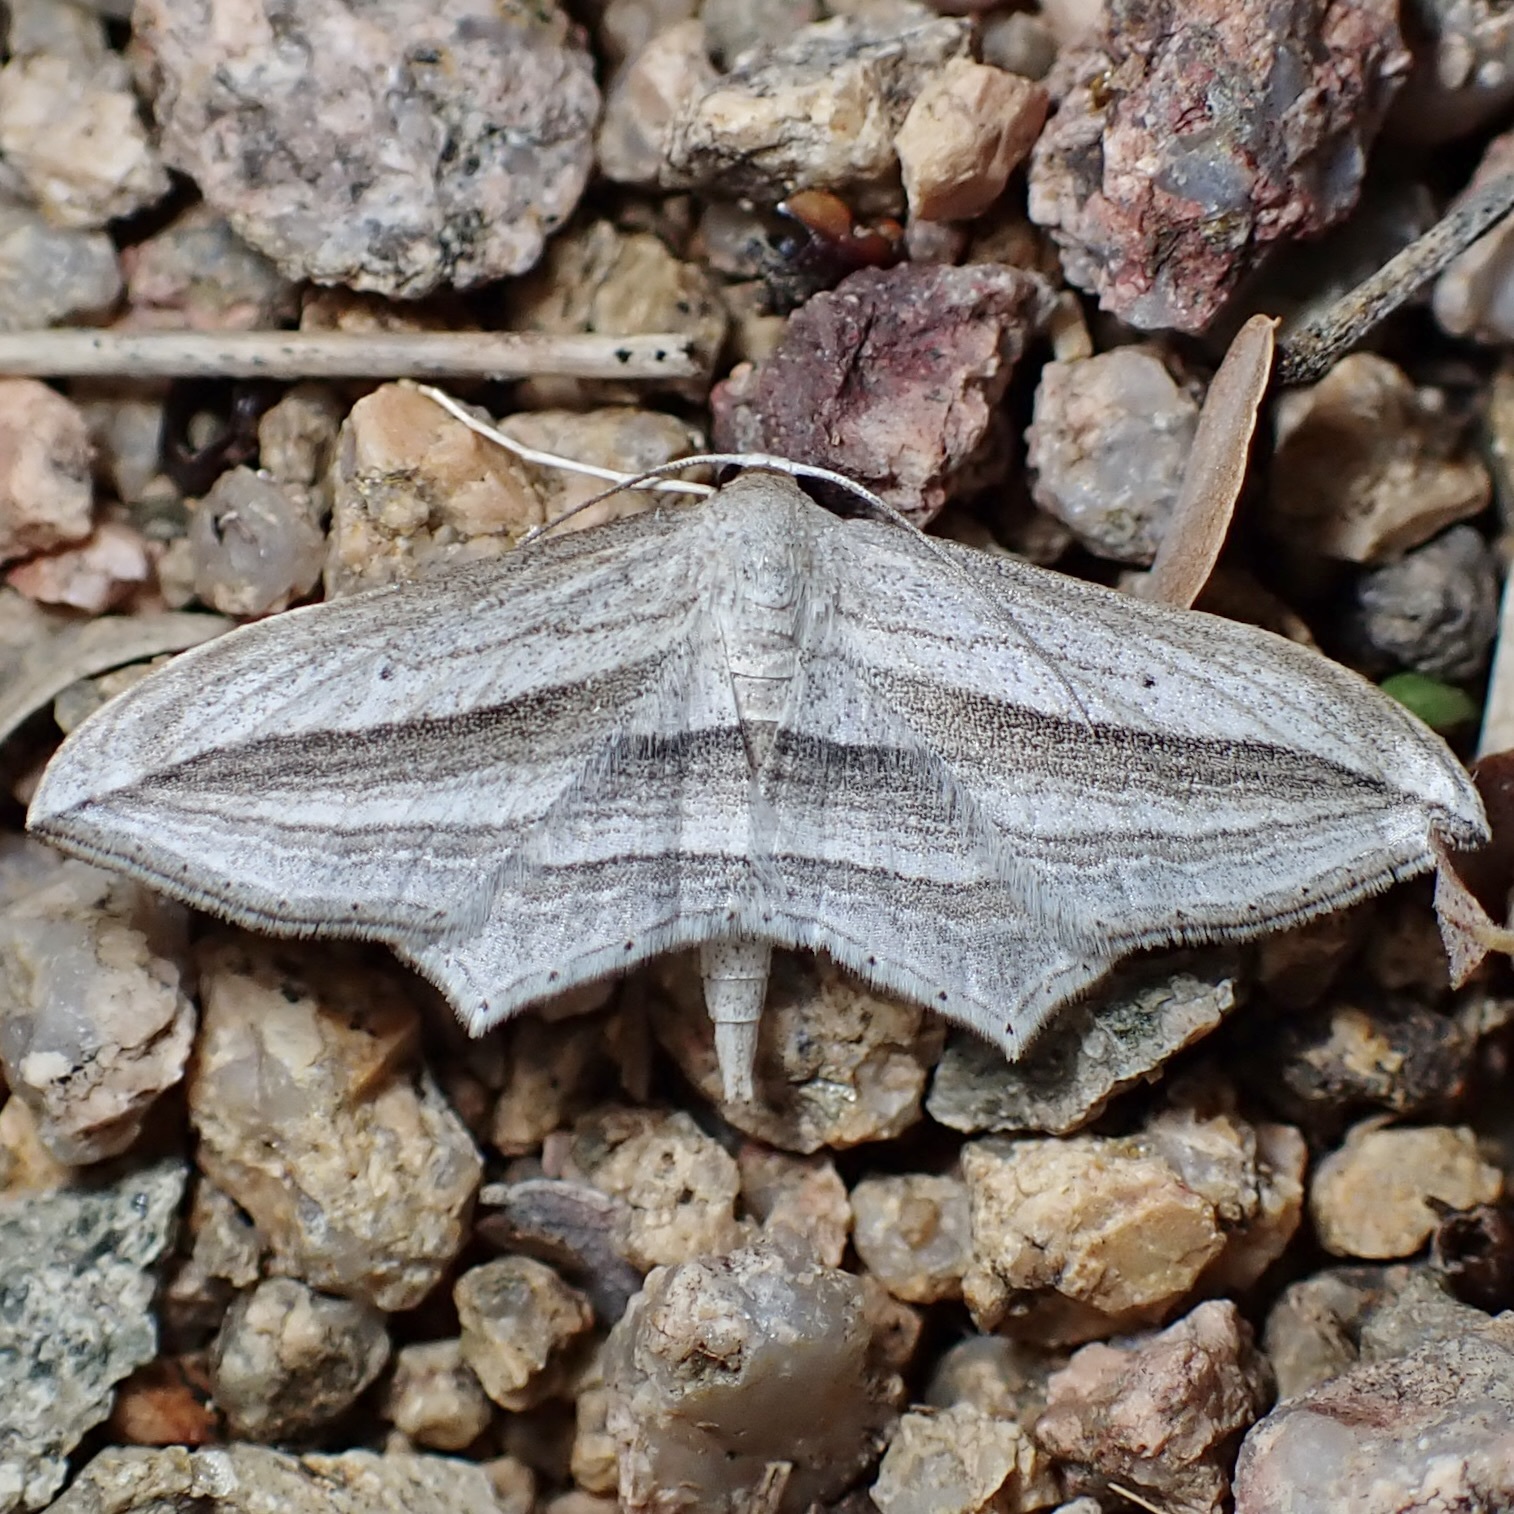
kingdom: Animalia
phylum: Arthropoda
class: Insecta
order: Lepidoptera
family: Geometridae
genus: Arcobara
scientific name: Arcobara multilineata
